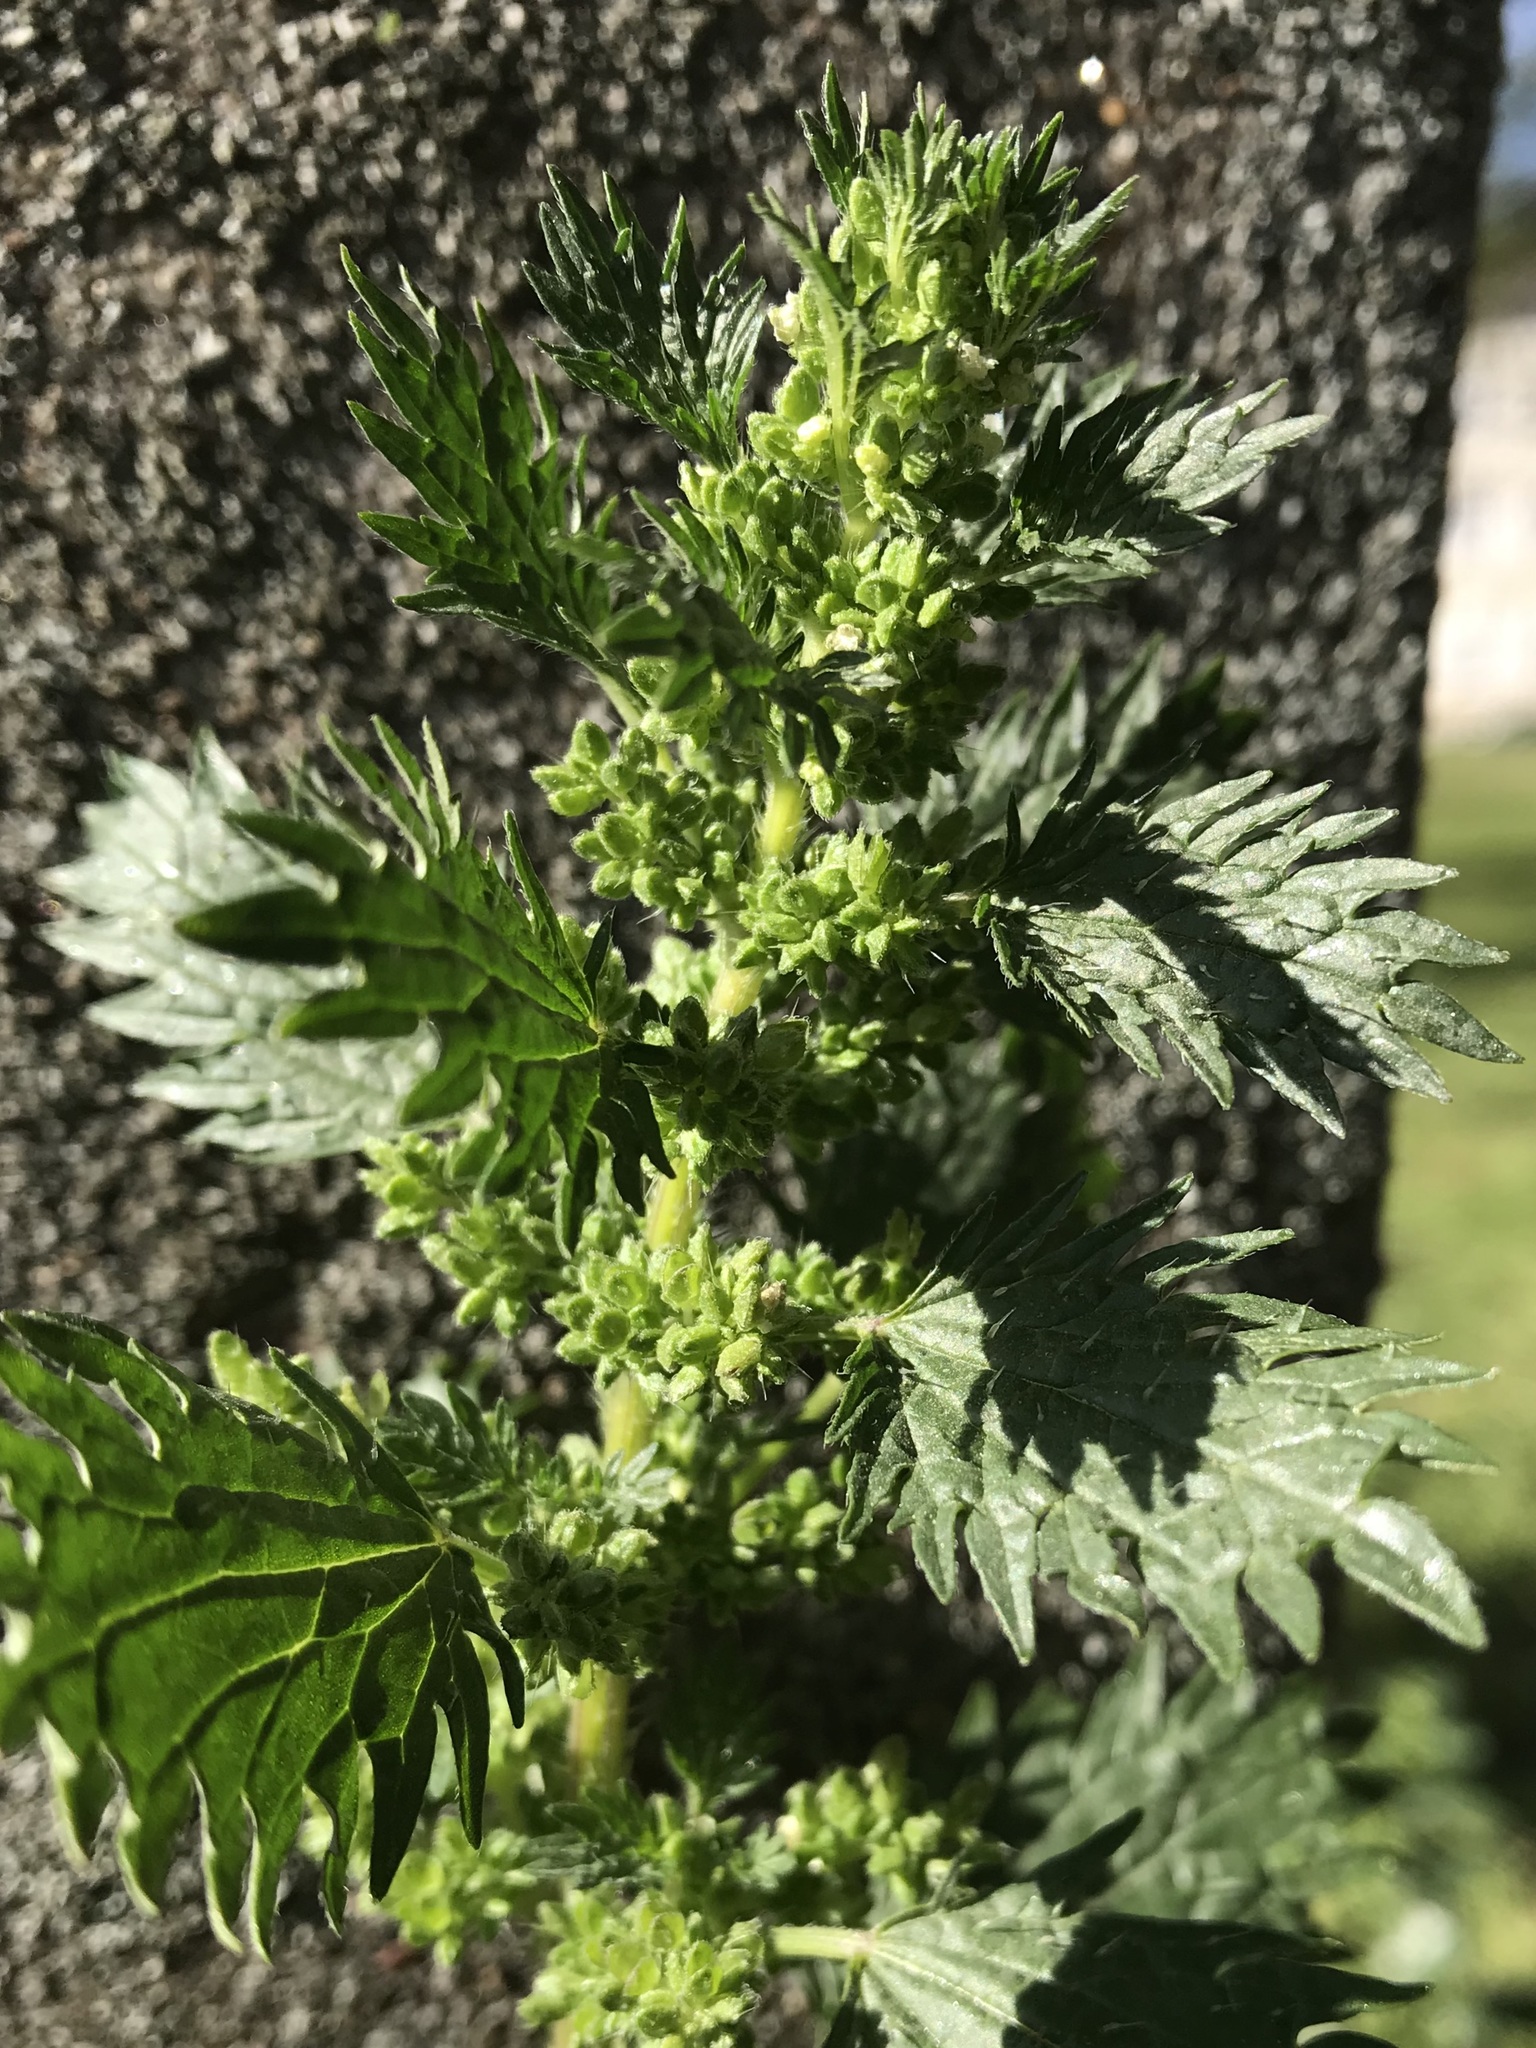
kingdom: Plantae
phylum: Tracheophyta
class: Magnoliopsida
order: Rosales
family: Urticaceae
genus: Urtica
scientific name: Urtica urens
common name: Dwarf nettle
